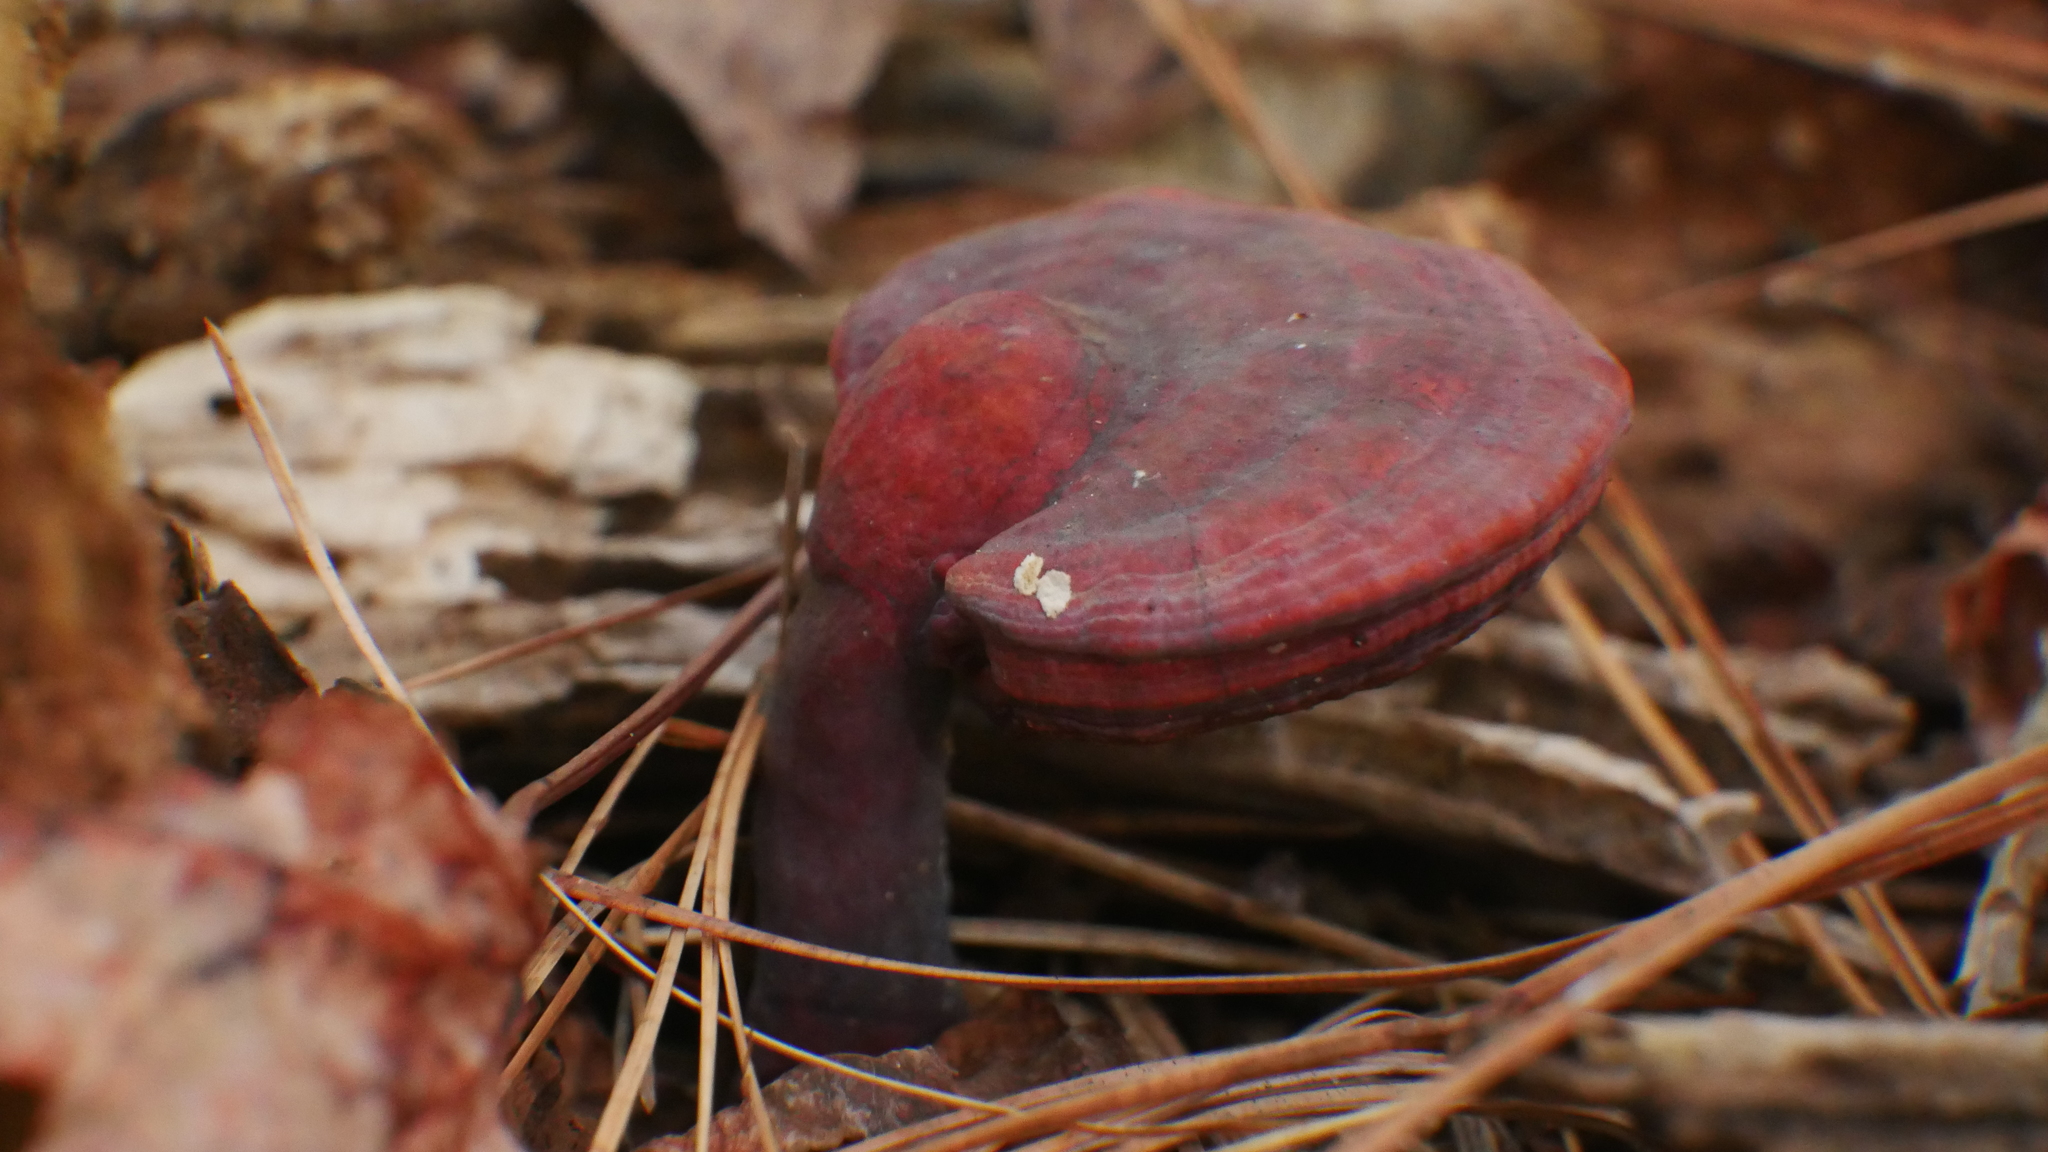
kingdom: Fungi
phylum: Basidiomycota
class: Agaricomycetes
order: Polyporales
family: Polyporaceae
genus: Ganoderma
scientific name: Ganoderma curtisii
